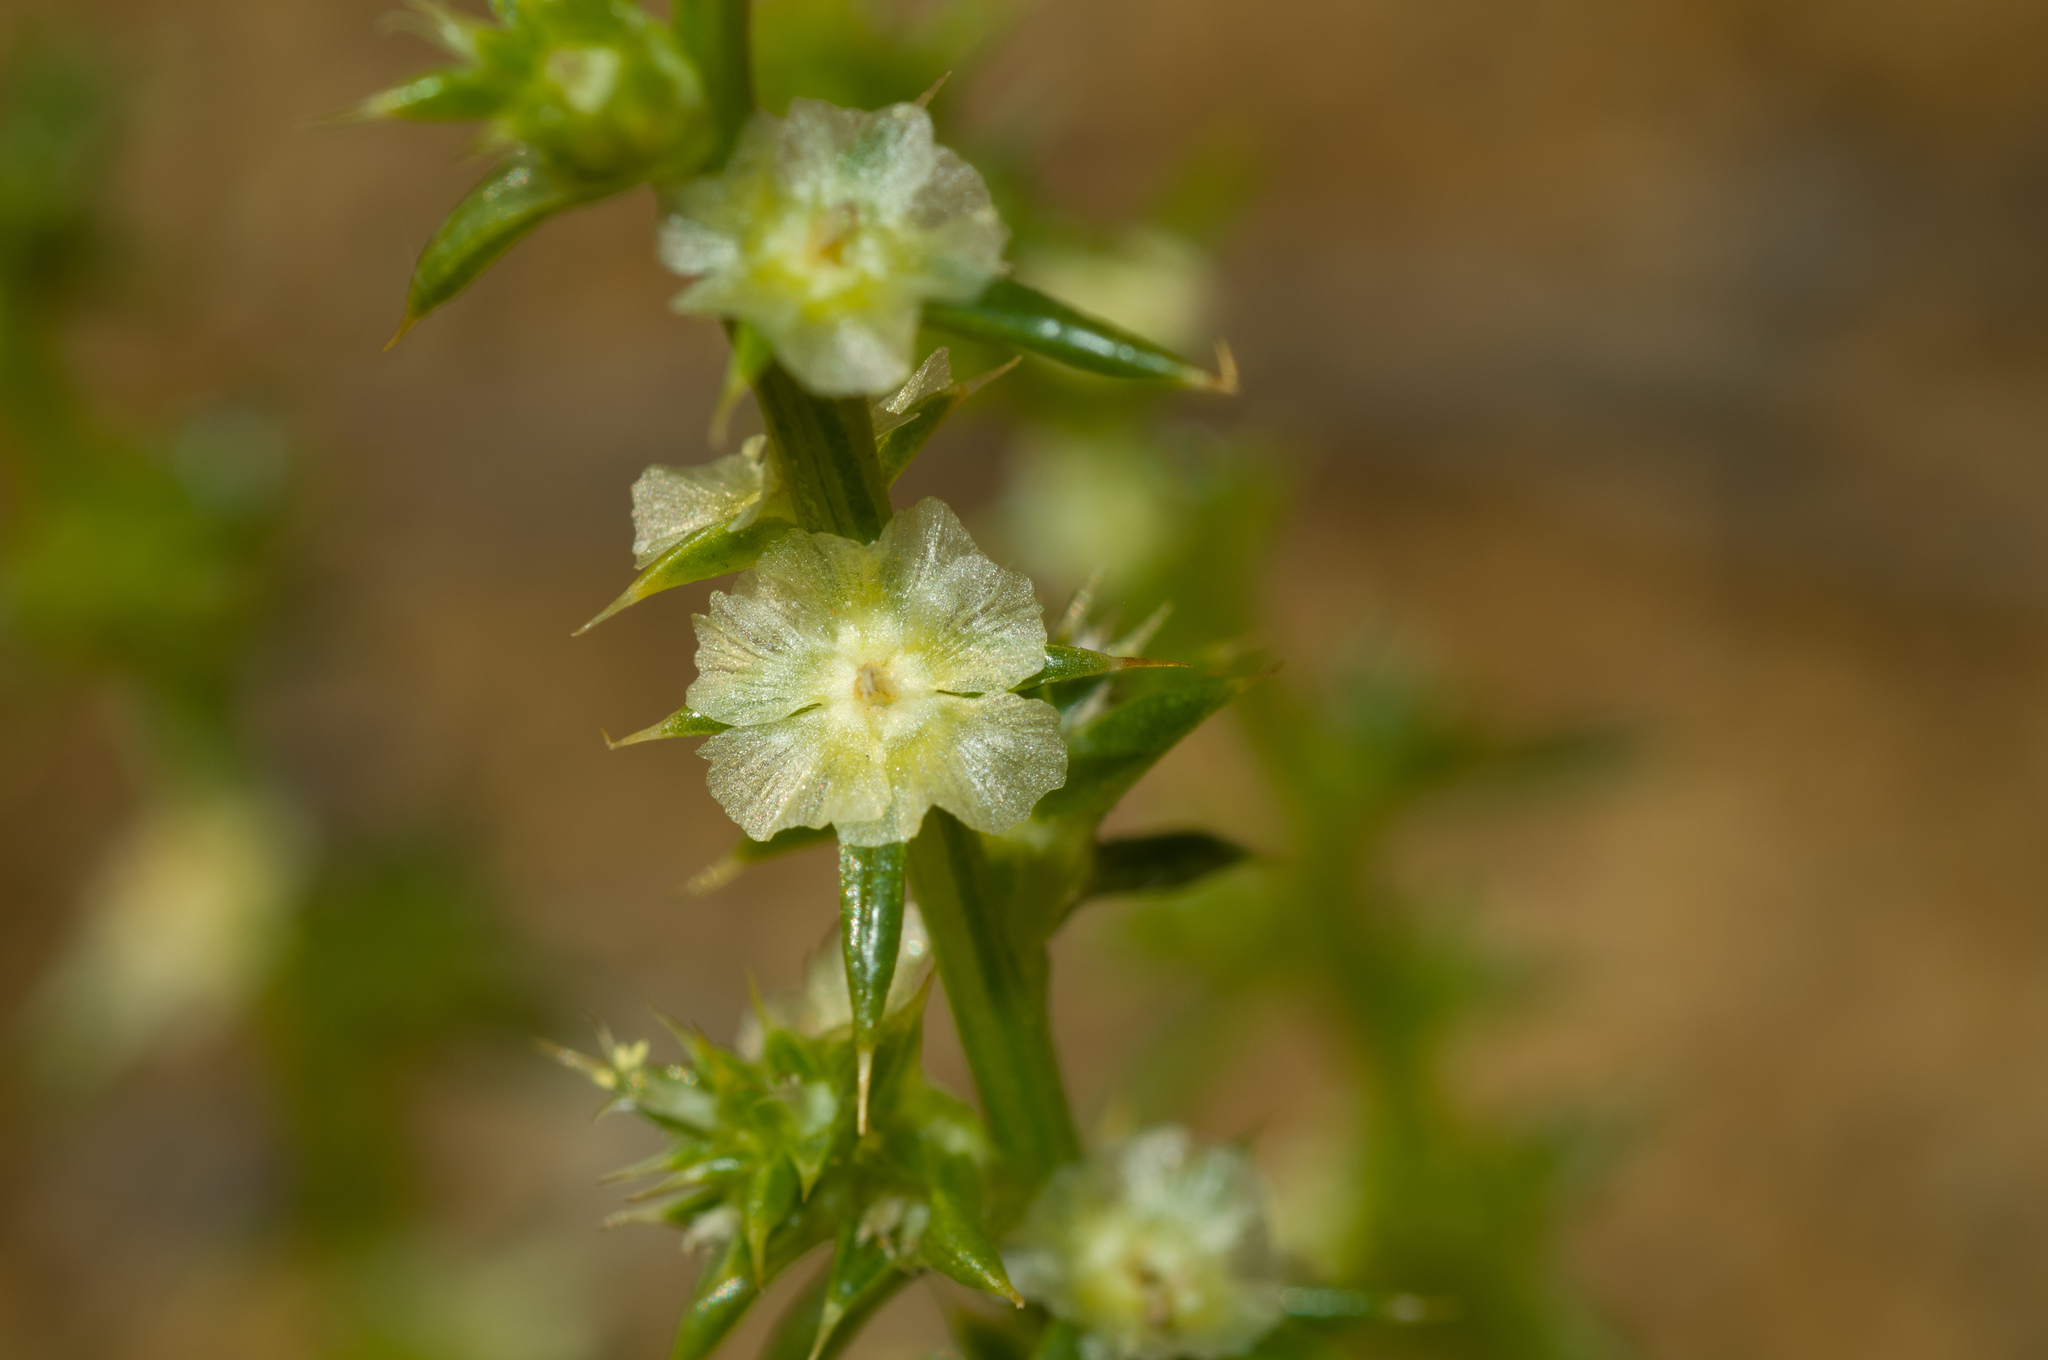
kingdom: Plantae
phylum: Tracheophyta
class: Magnoliopsida
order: Caryophyllales
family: Amaranthaceae
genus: Salsola
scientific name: Salsola kali
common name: Saltwort
